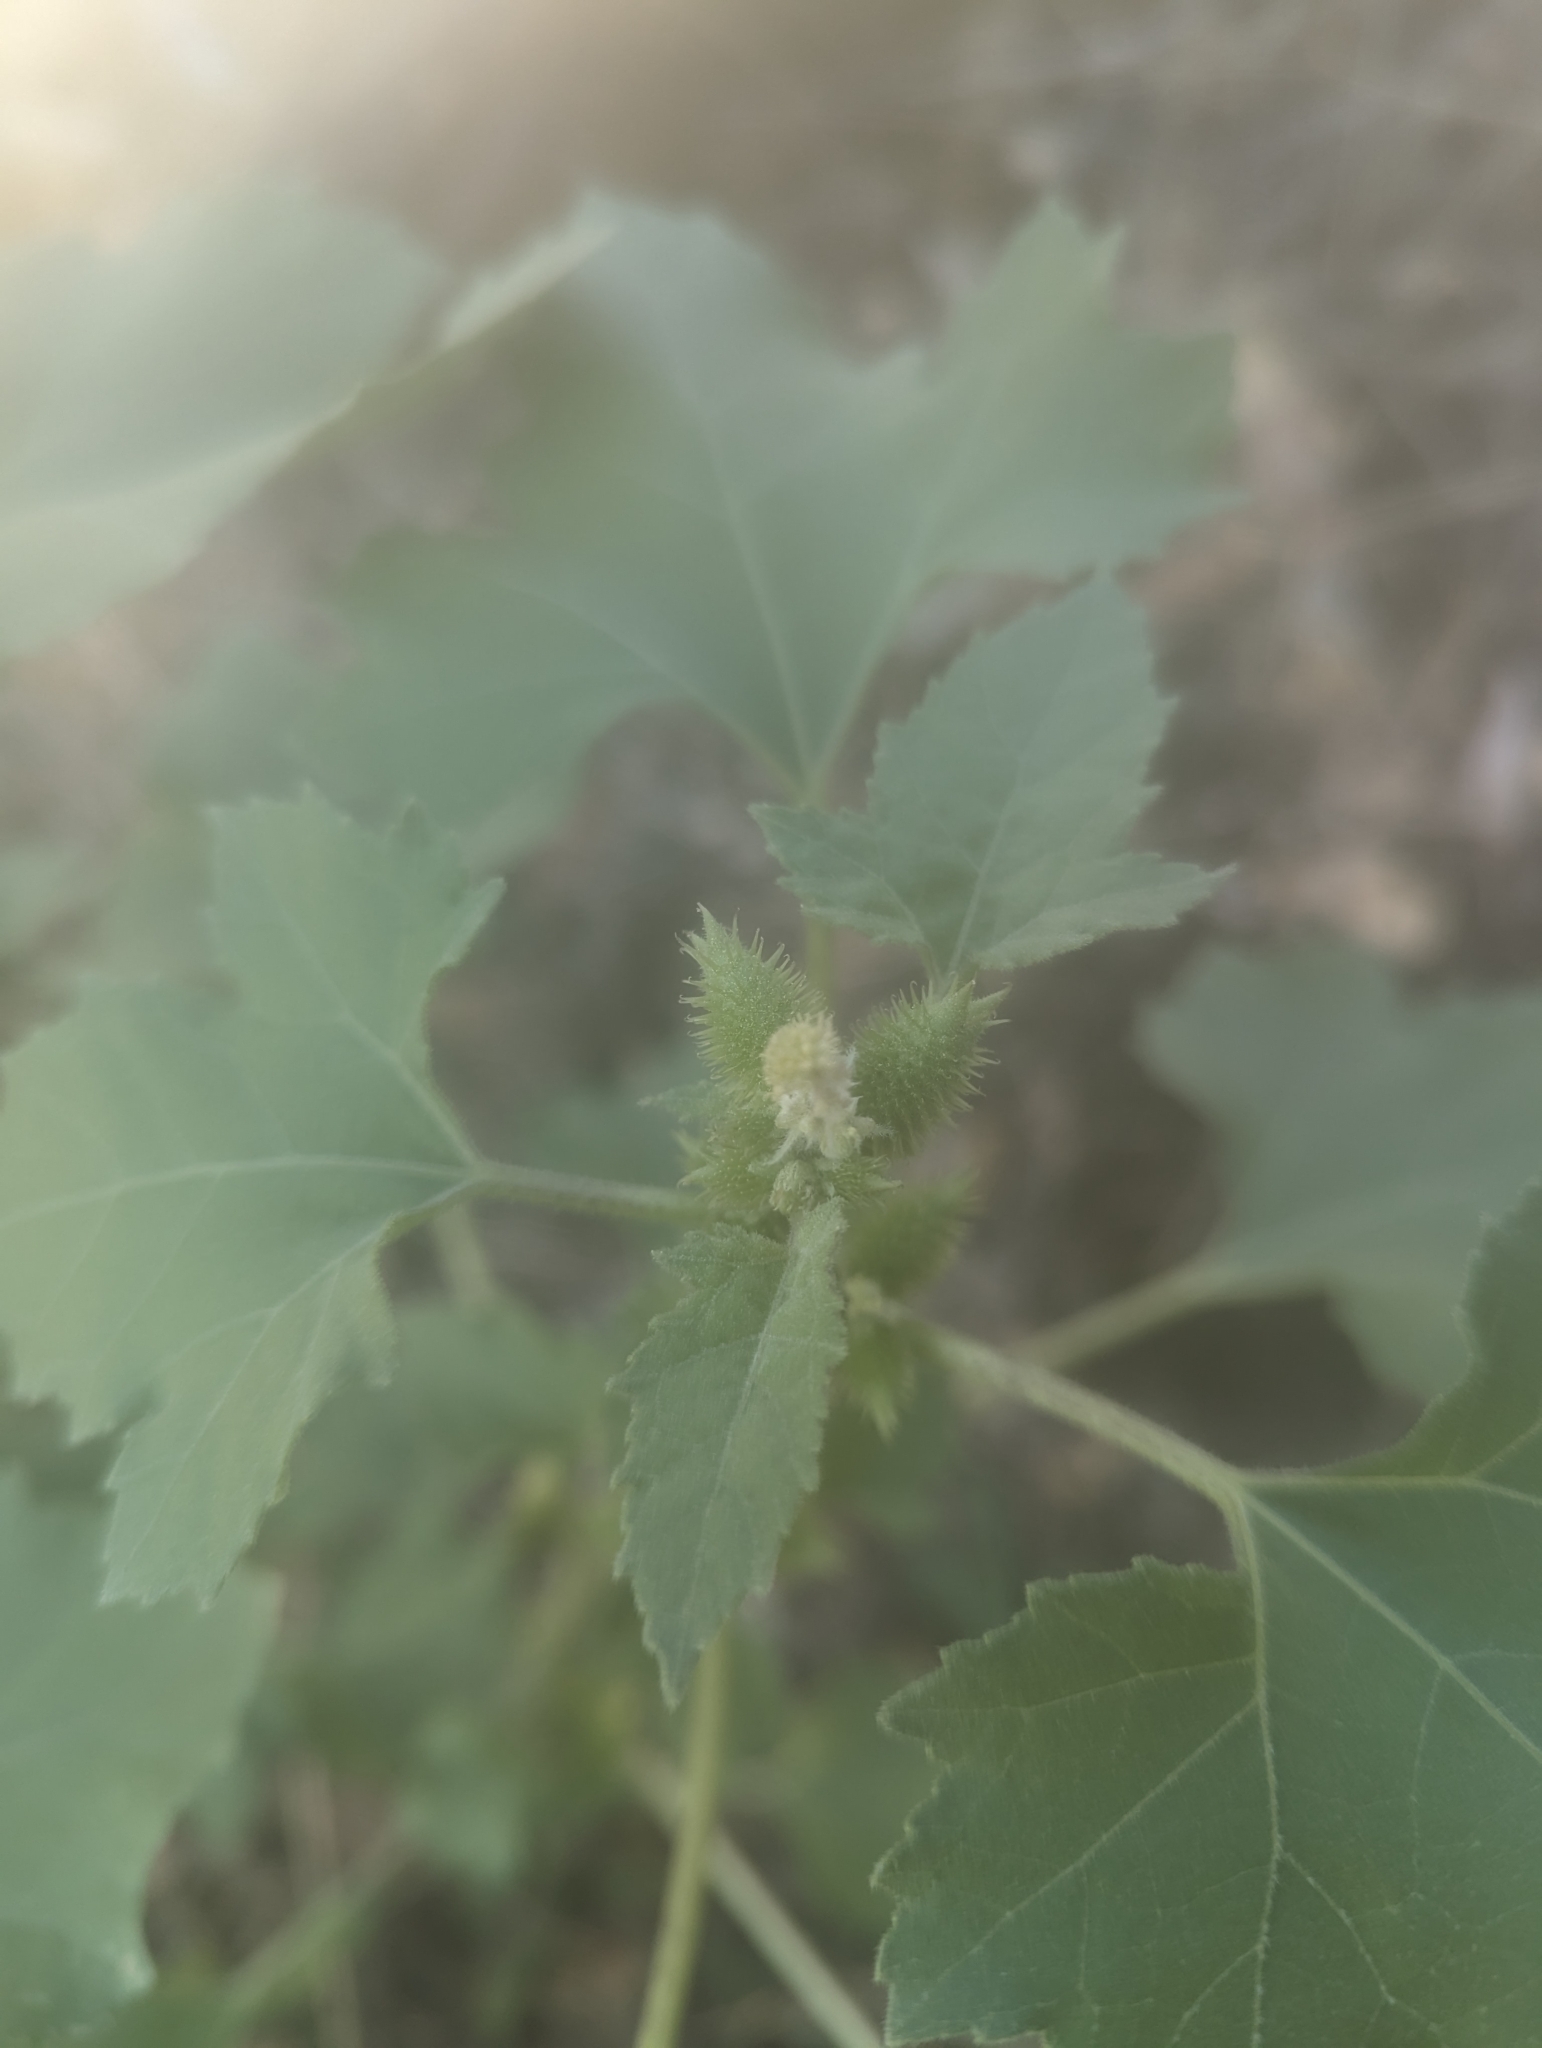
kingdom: Plantae
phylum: Tracheophyta
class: Magnoliopsida
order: Asterales
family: Asteraceae
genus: Xanthium
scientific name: Xanthium strumarium
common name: Rough cocklebur
